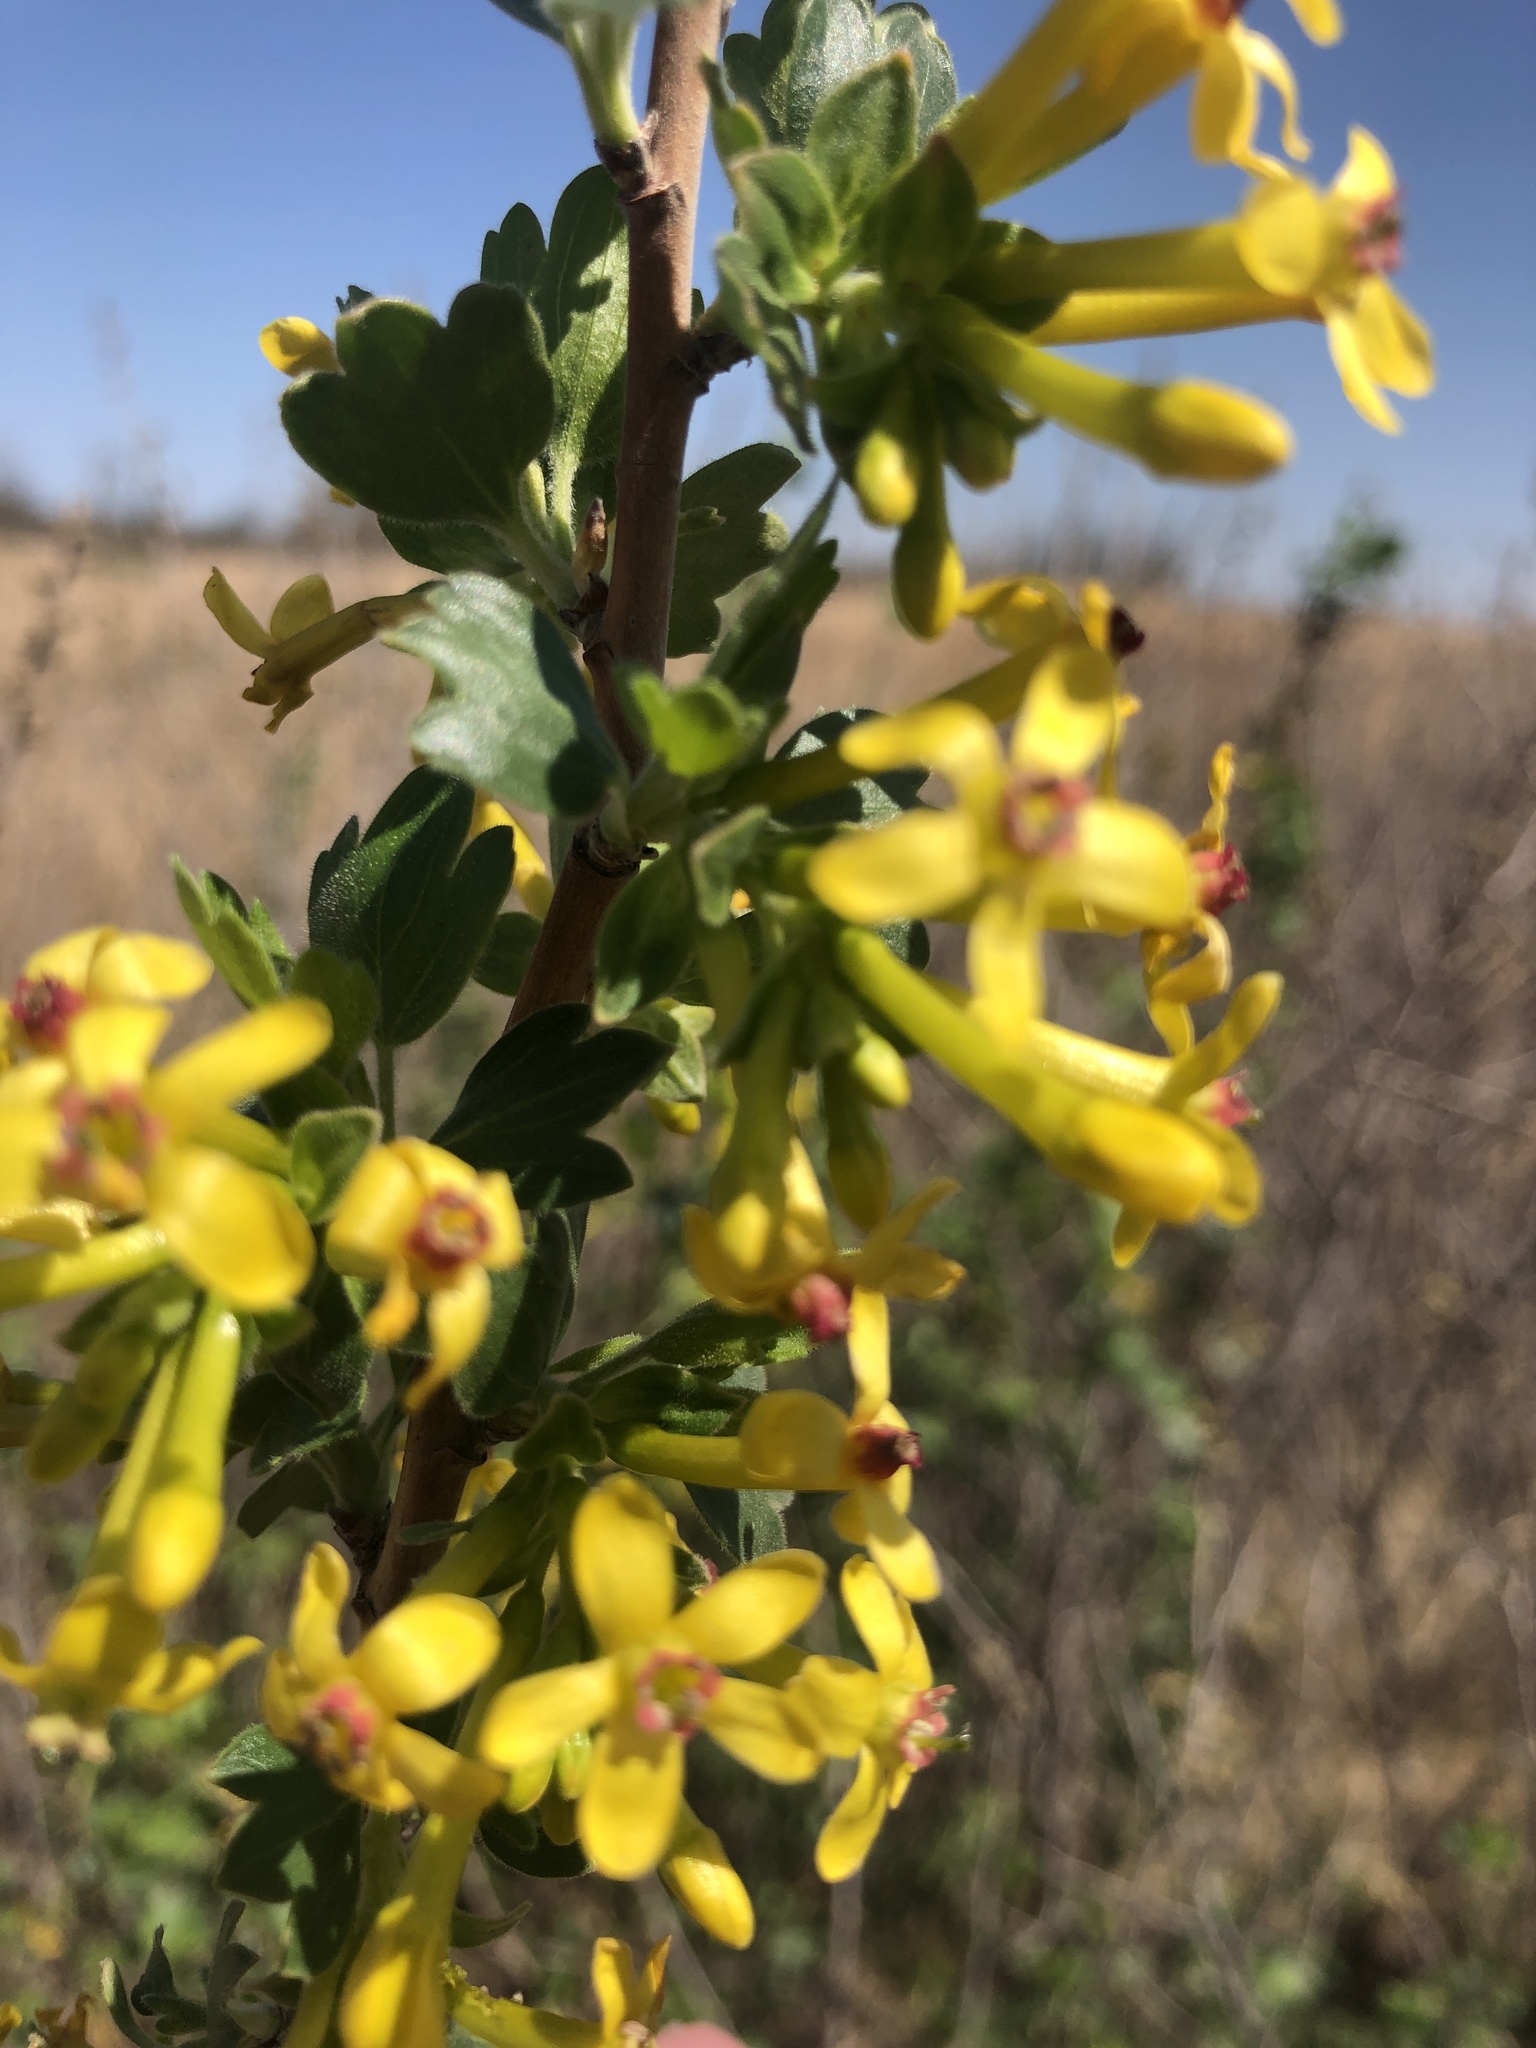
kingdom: Plantae
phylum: Tracheophyta
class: Magnoliopsida
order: Saxifragales
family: Grossulariaceae
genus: Ribes
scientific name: Ribes aureum
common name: Golden currant
